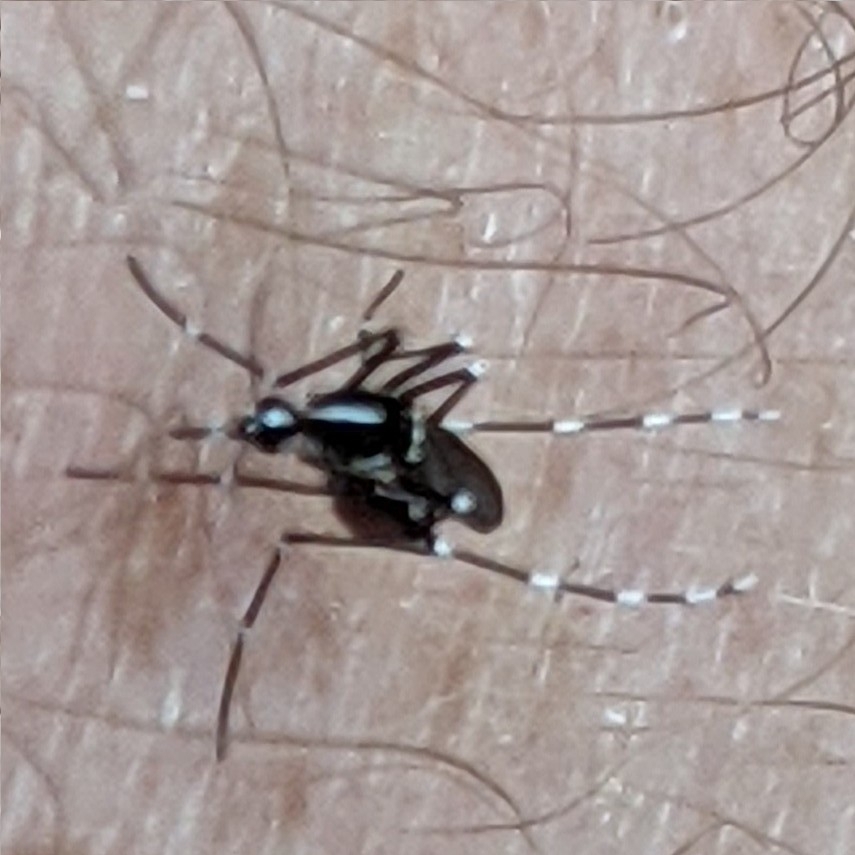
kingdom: Animalia
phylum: Arthropoda
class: Insecta
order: Diptera
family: Culicidae
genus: Aedes
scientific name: Aedes albopictus
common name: Tiger mosquito
